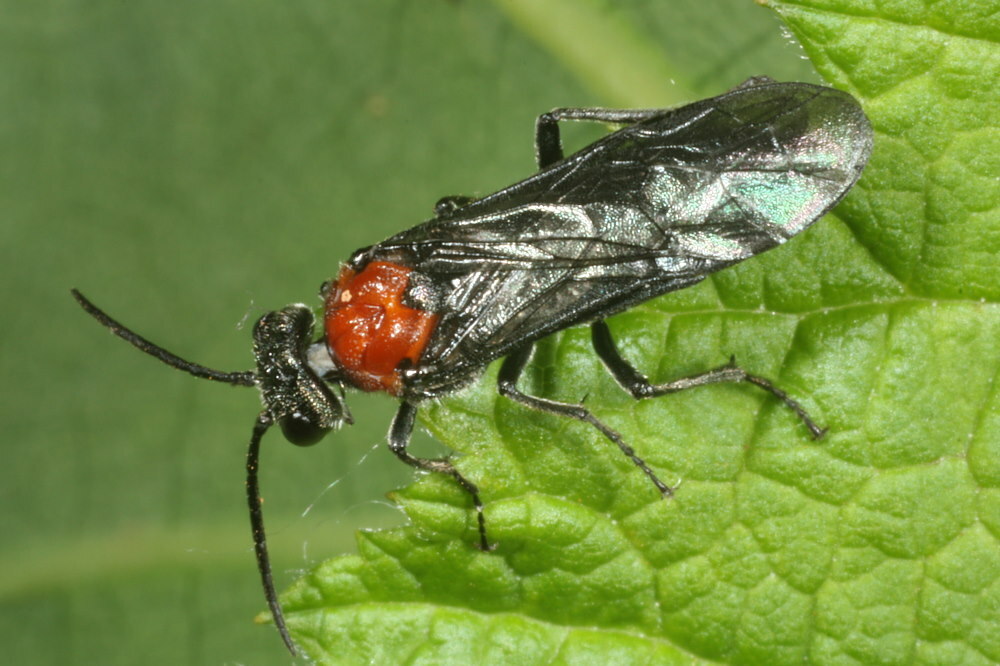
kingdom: Animalia
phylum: Arthropoda
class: Insecta
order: Hymenoptera
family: Tenthredinidae
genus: Dolerus
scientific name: Dolerus sanguinicollis
